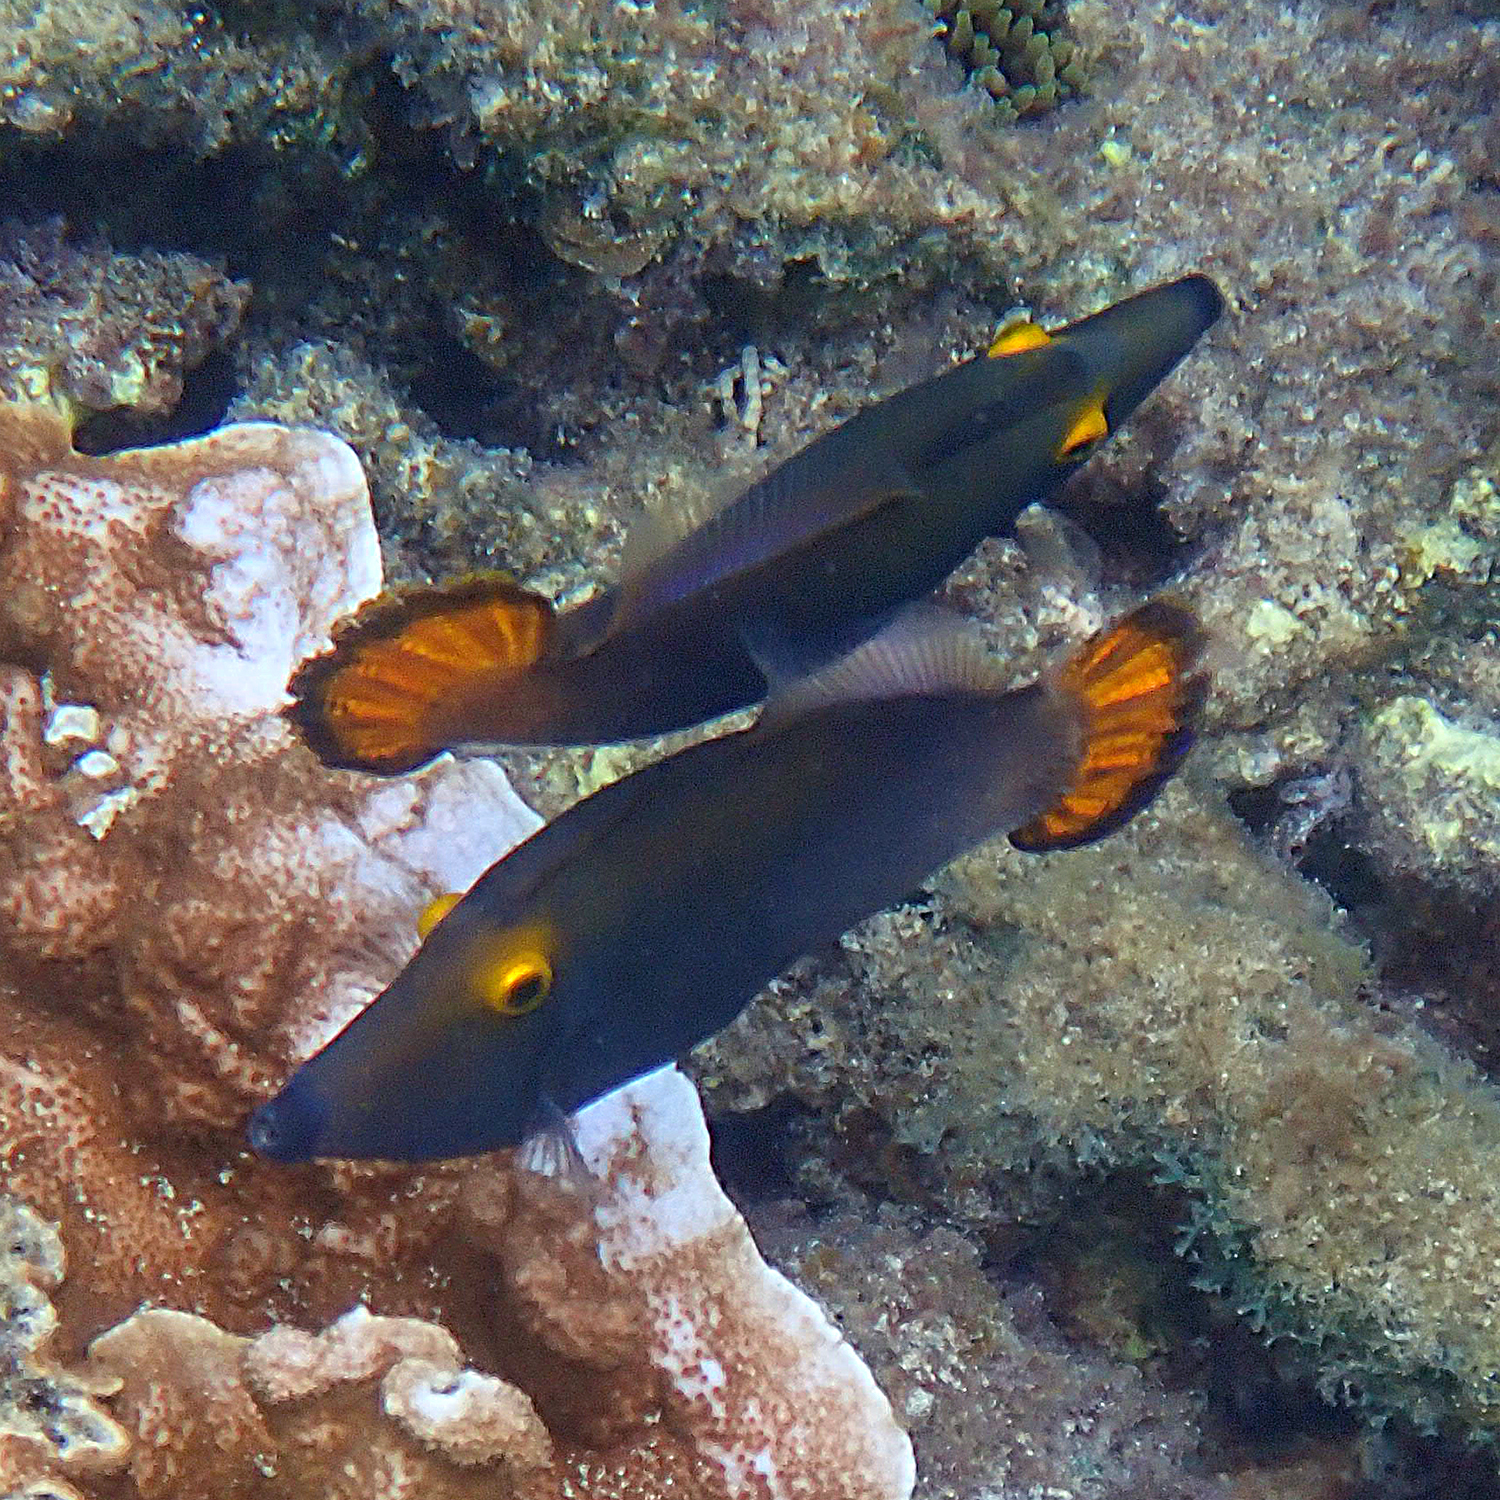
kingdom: Animalia
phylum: Chordata
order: Tetraodontiformes
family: Monacanthidae
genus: Pervagor
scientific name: Pervagor alternans
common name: Yelloweye filefish
